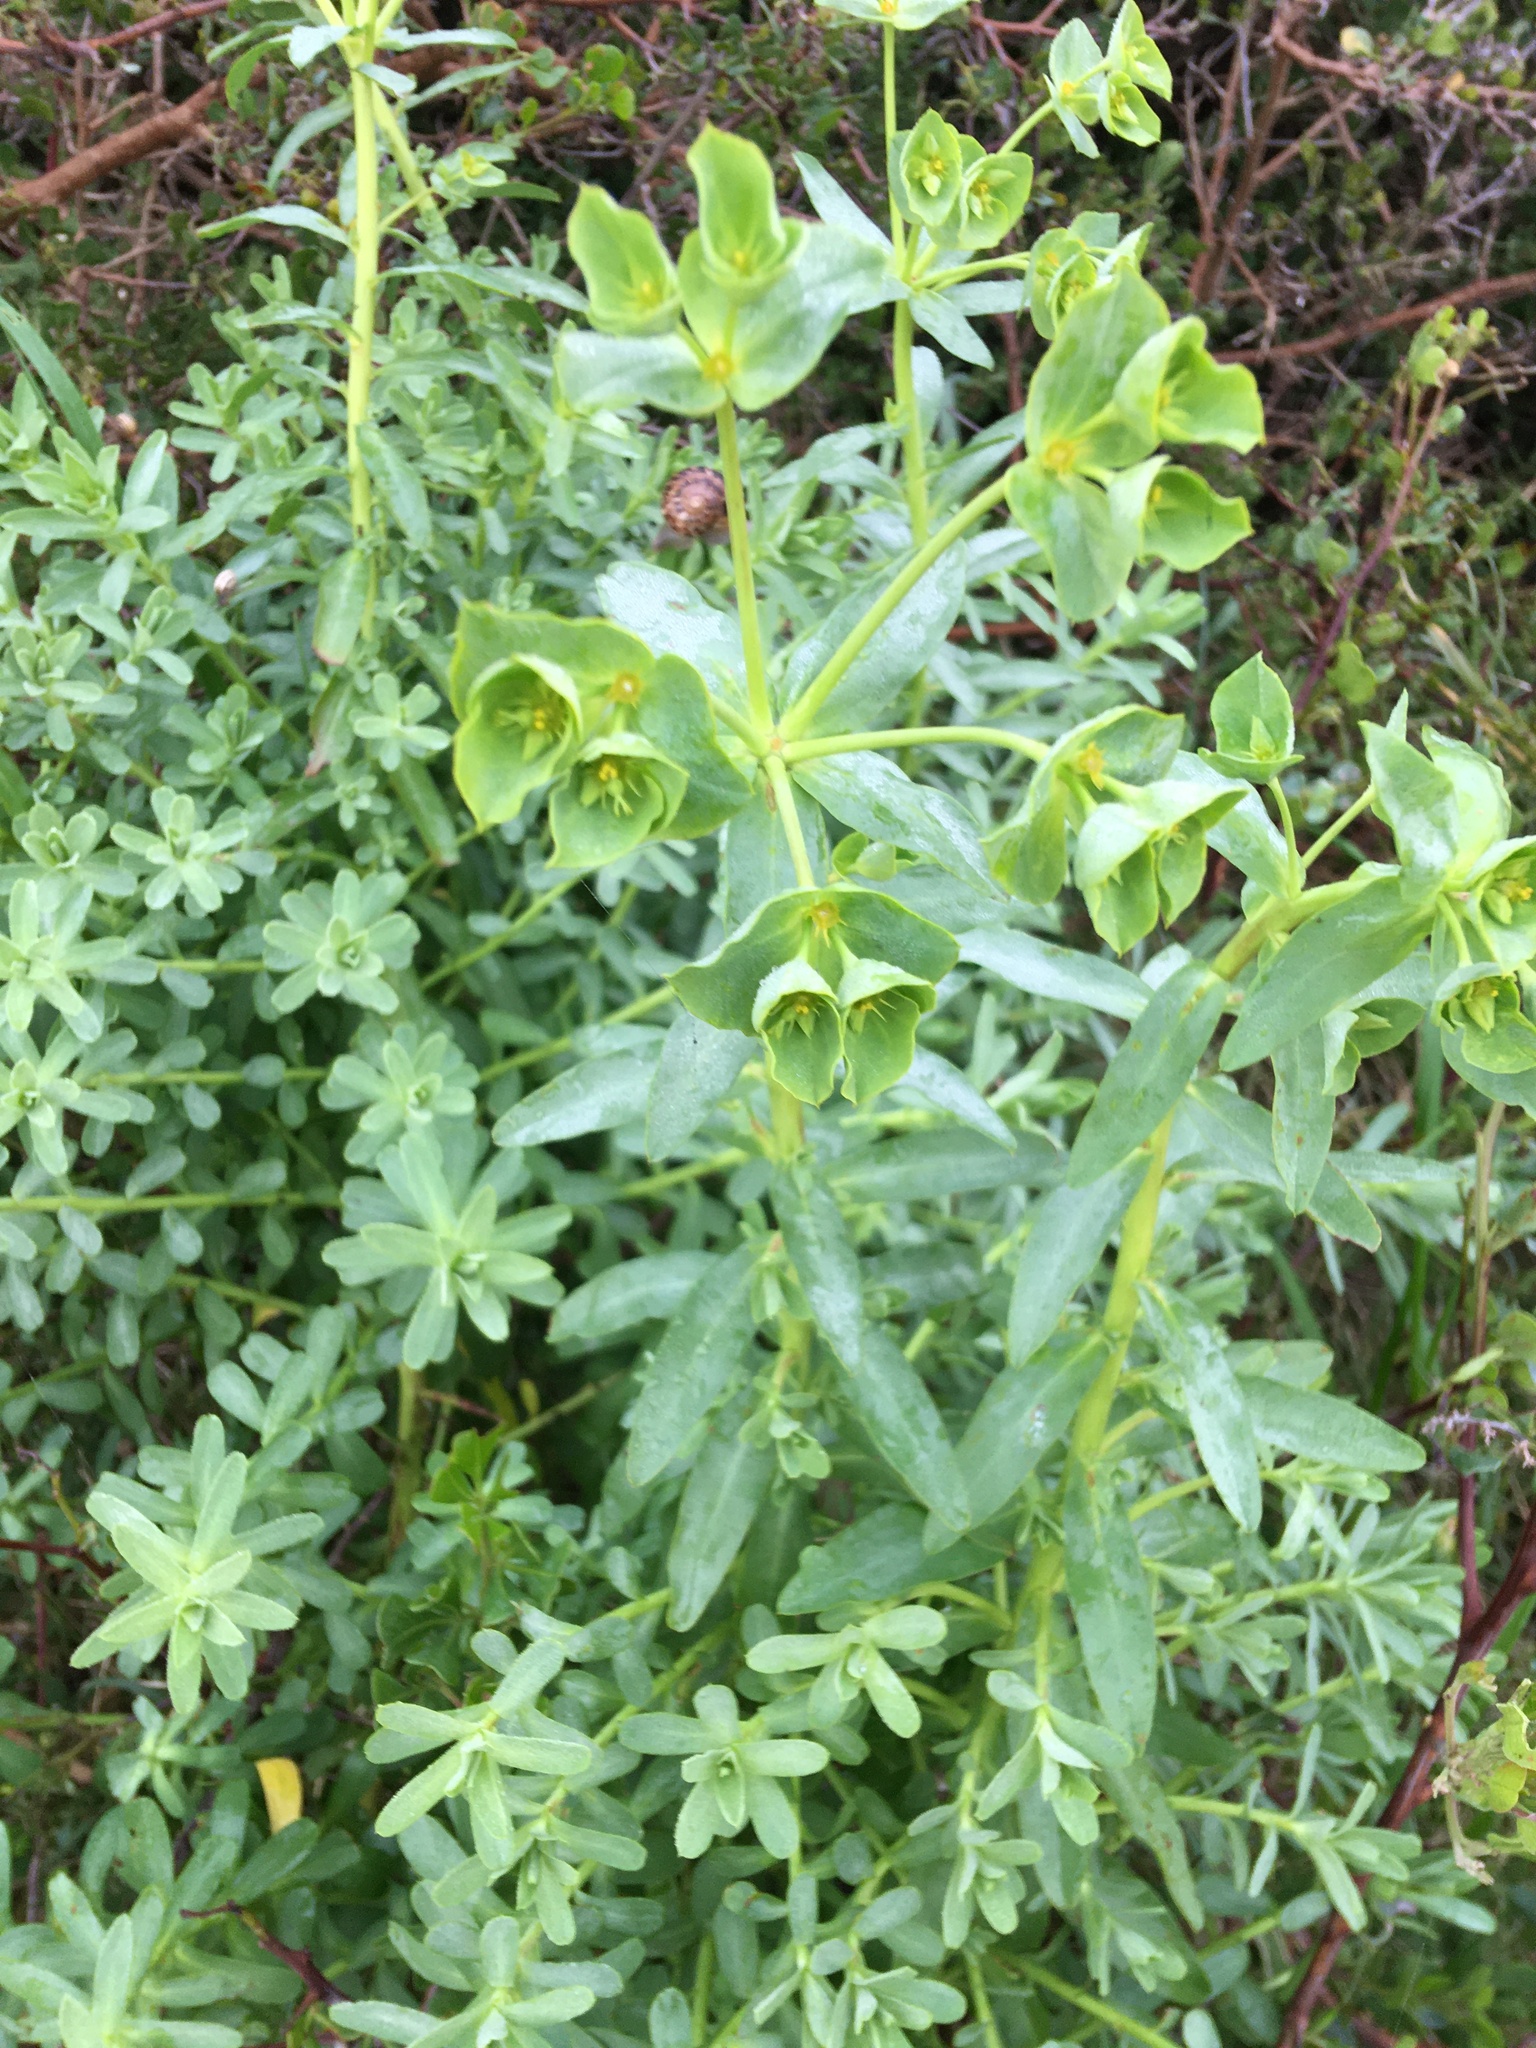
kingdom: Plantae
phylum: Tracheophyta
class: Magnoliopsida
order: Malpighiales
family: Euphorbiaceae
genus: Euphorbia
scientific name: Euphorbia terracina
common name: Geraldton carnation weed
